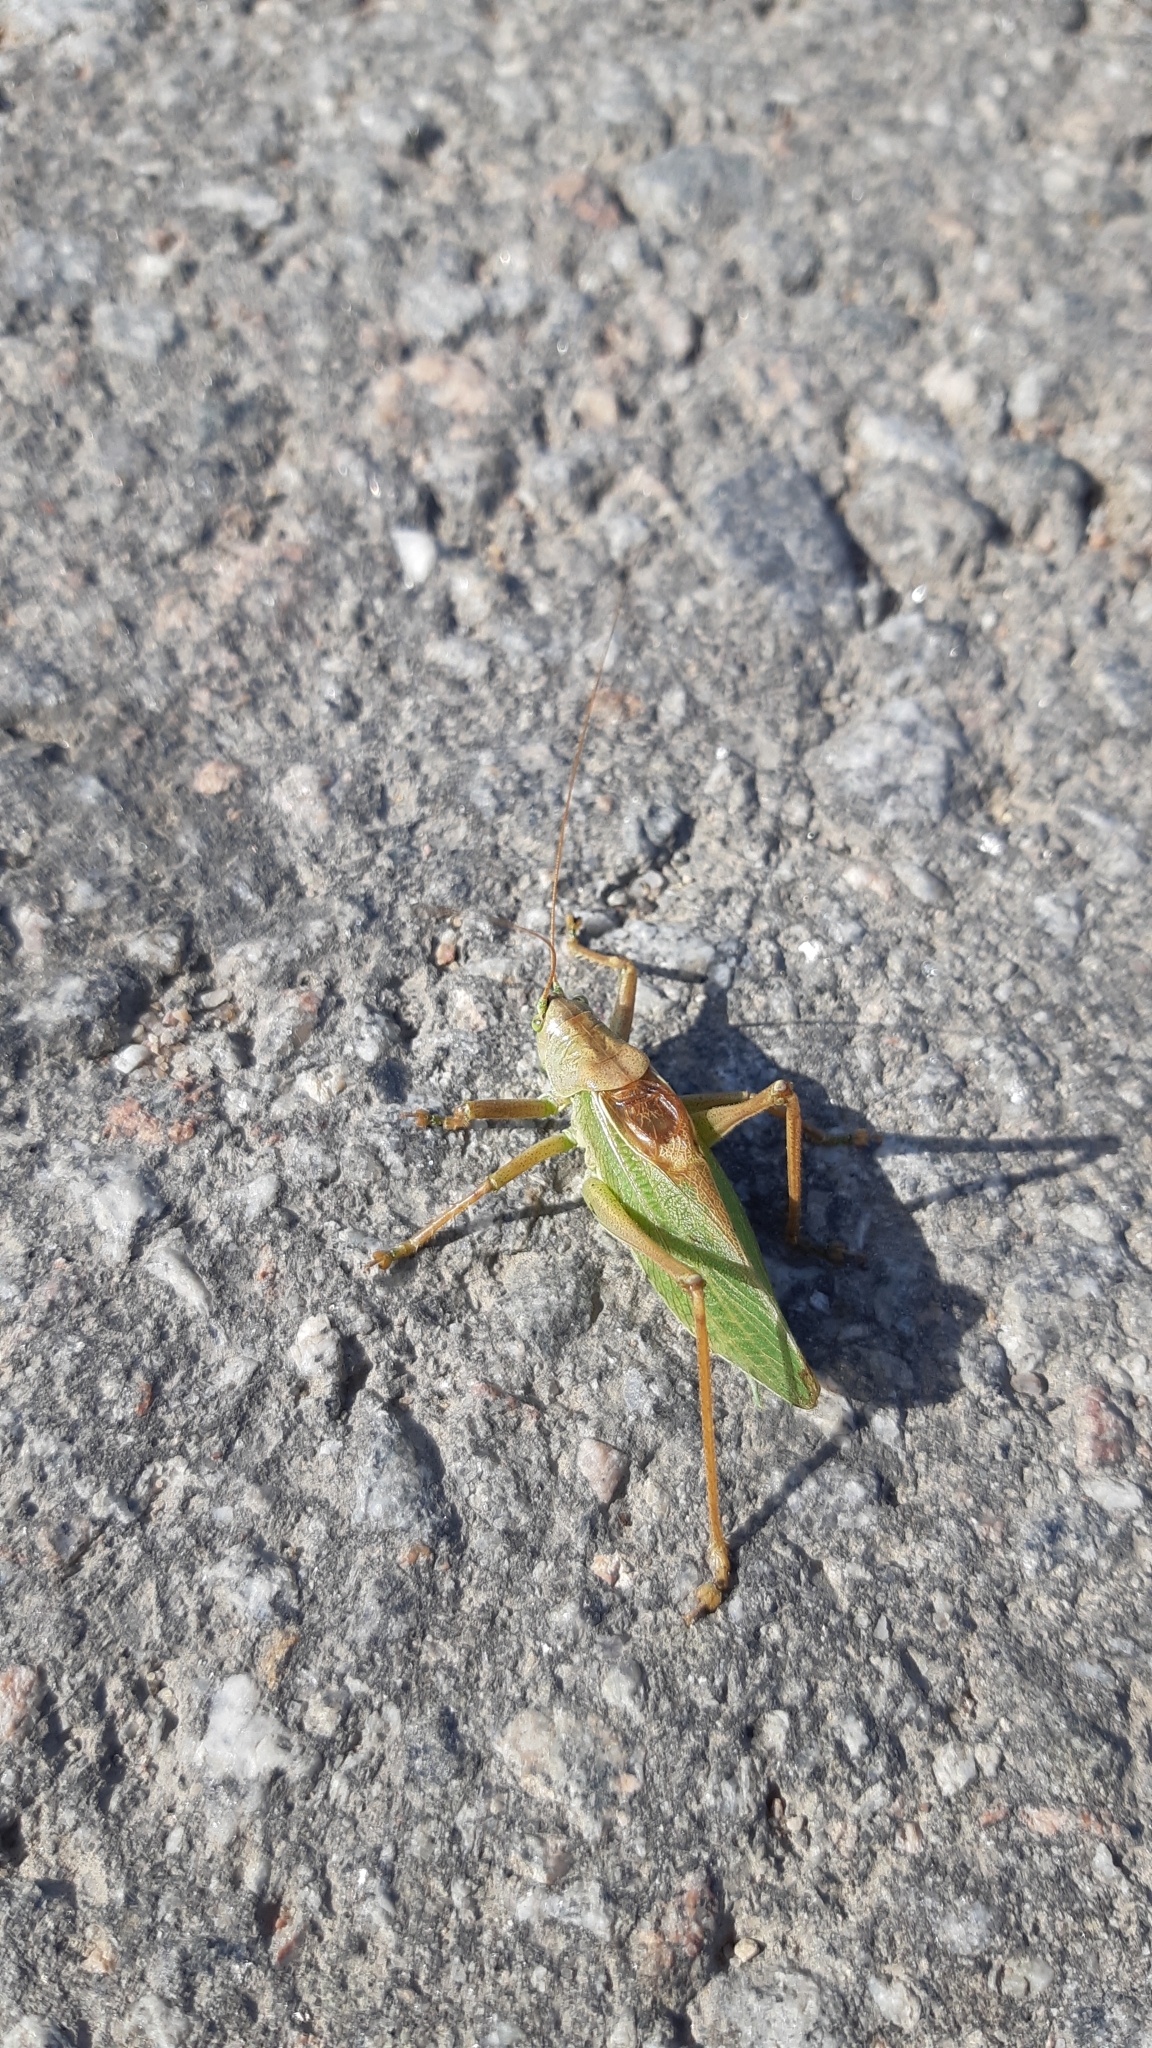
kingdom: Animalia
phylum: Arthropoda
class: Insecta
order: Orthoptera
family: Tettigoniidae
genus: Tettigonia
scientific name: Tettigonia cantans
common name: Upland green bush-cricket
